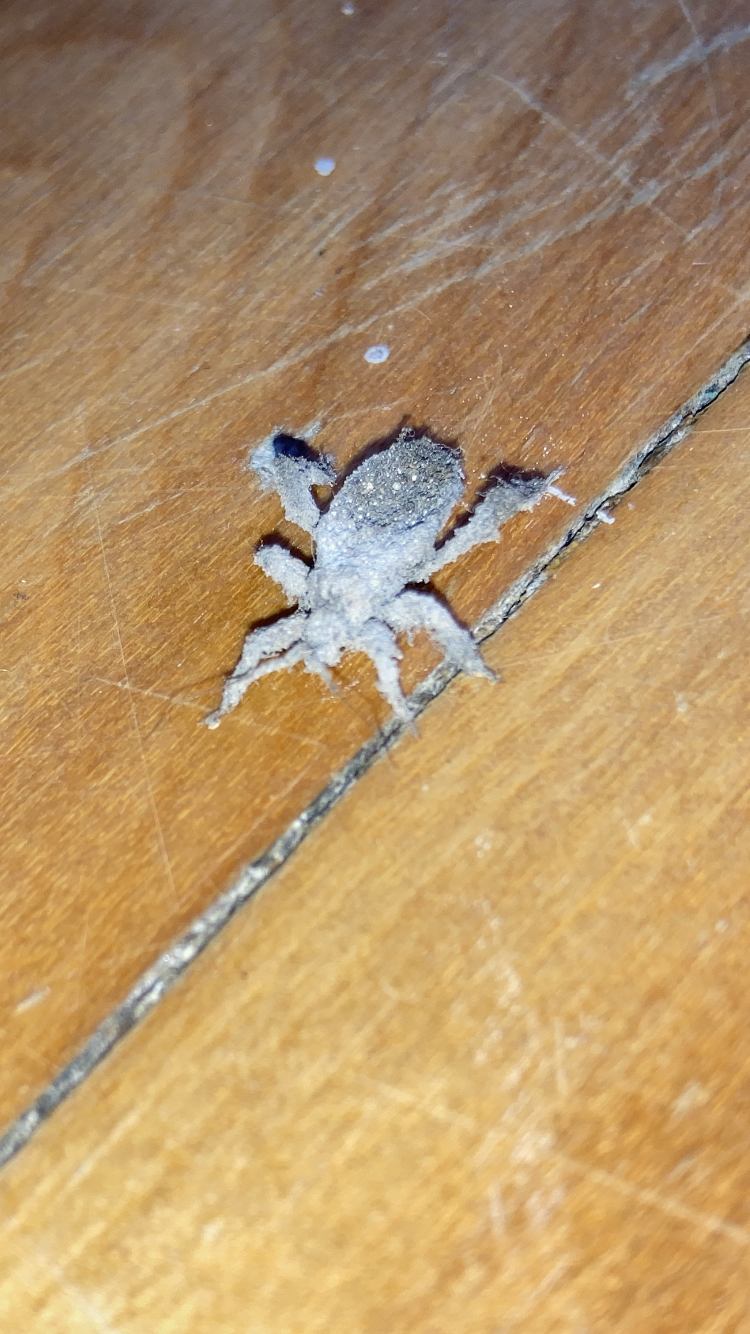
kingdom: Animalia
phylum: Arthropoda
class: Insecta
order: Hemiptera
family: Reduviidae
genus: Reduvius
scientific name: Reduvius personatus
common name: Masked hunter
